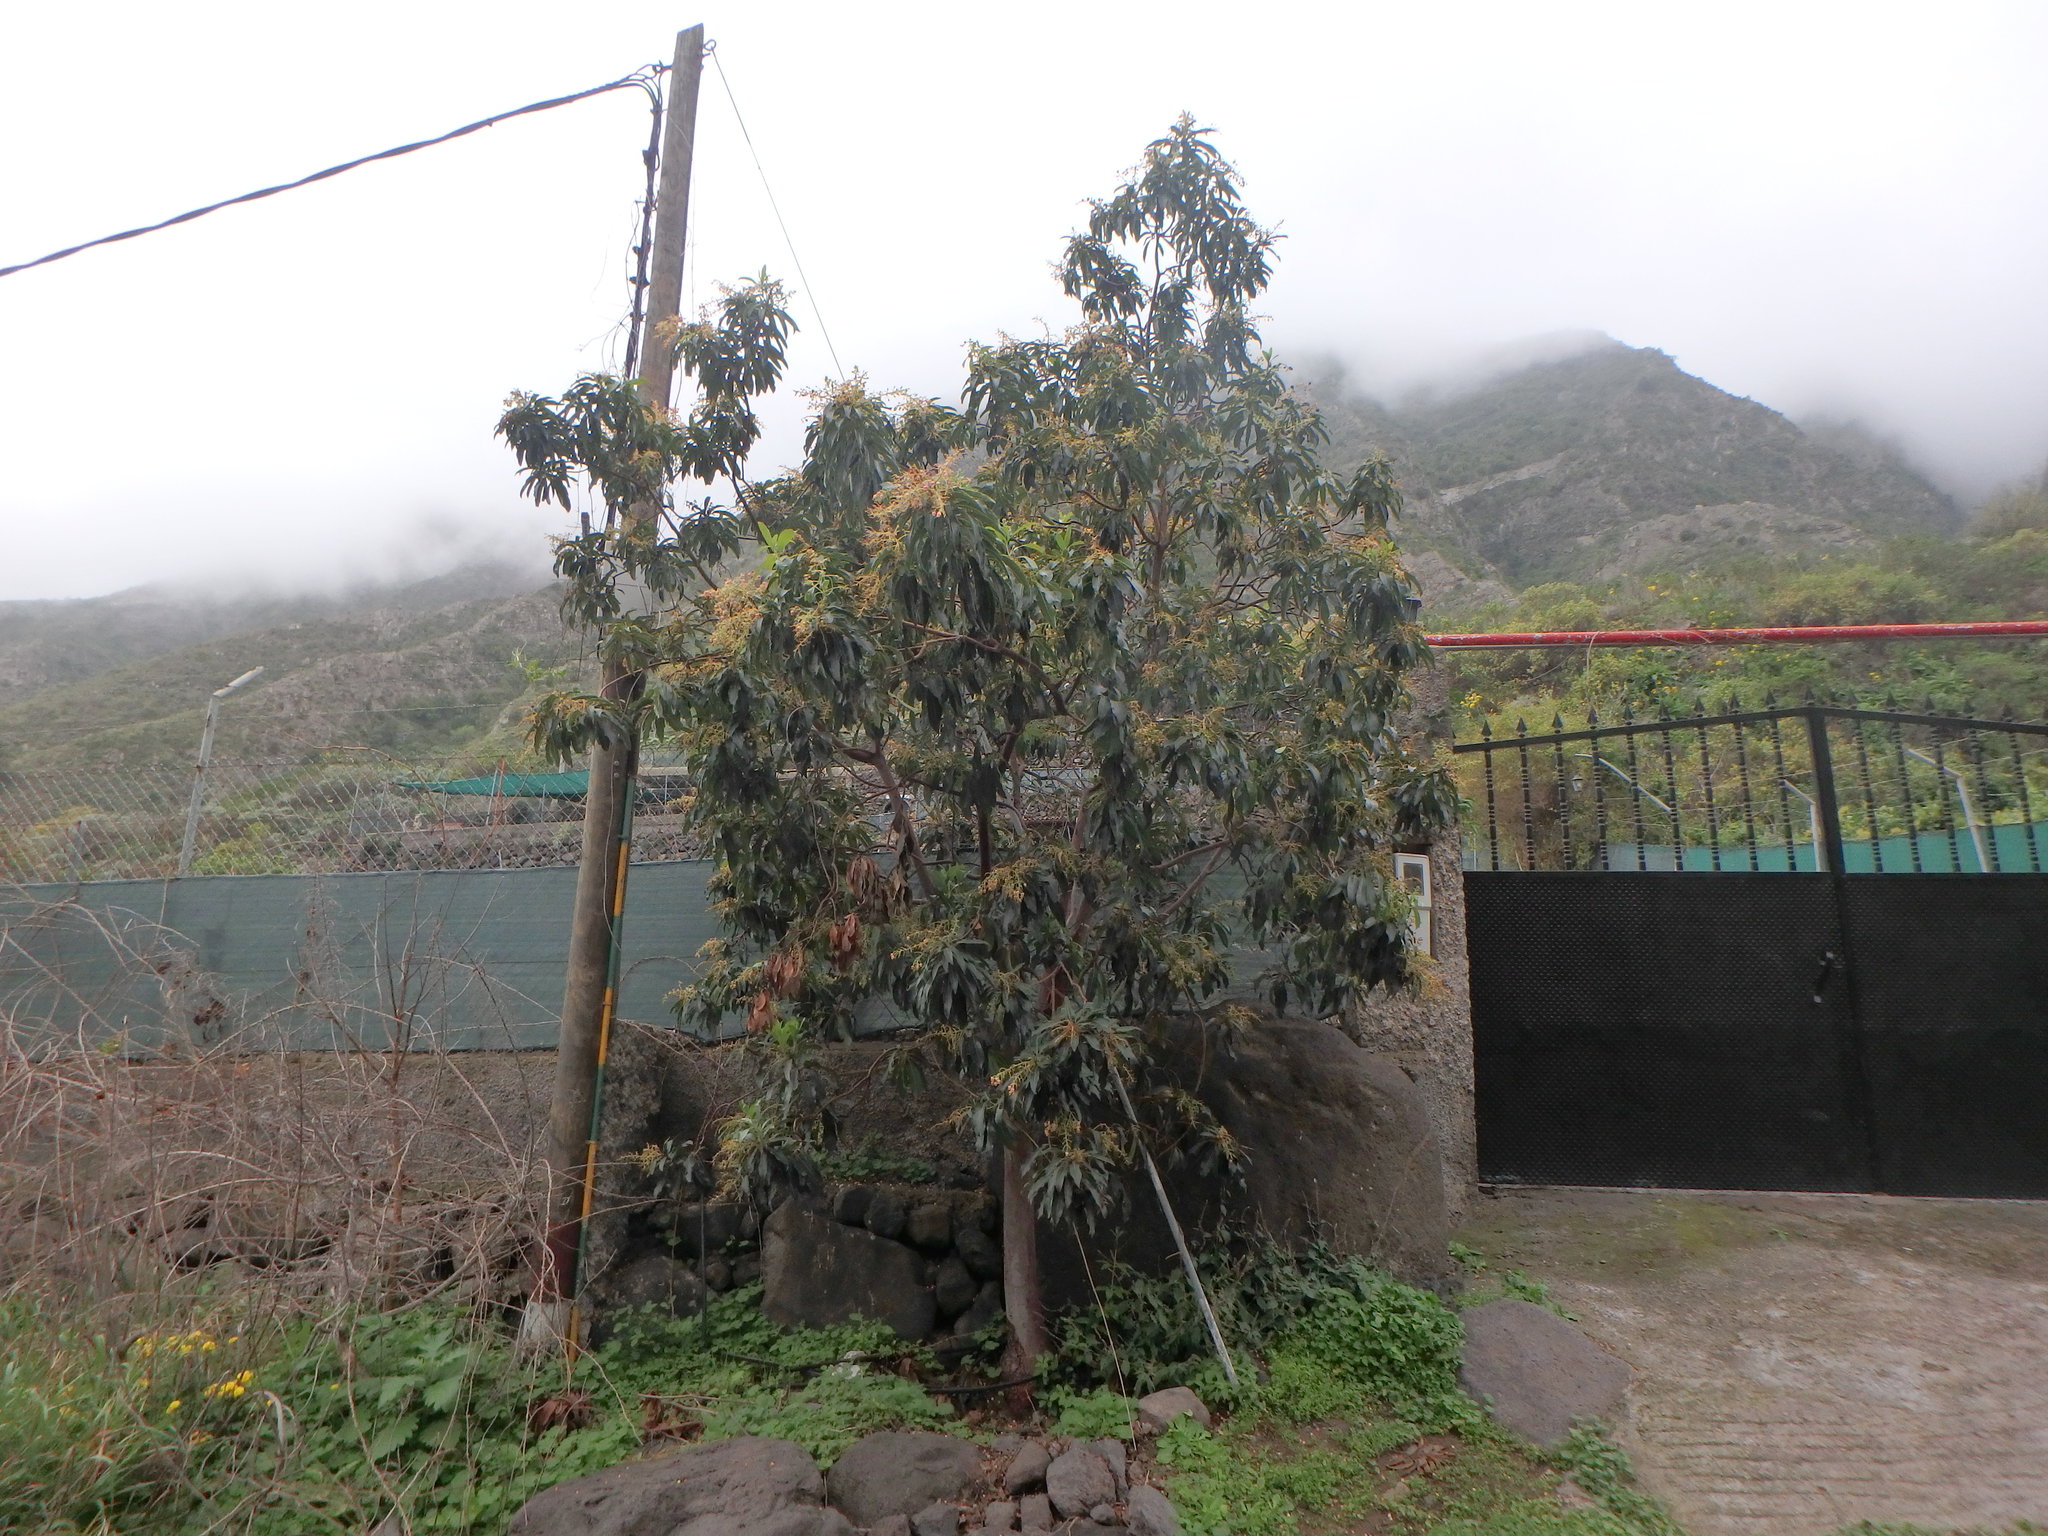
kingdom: Plantae
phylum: Tracheophyta
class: Magnoliopsida
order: Ericales
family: Ericaceae
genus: Arbutus
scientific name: Arbutus canariensis
